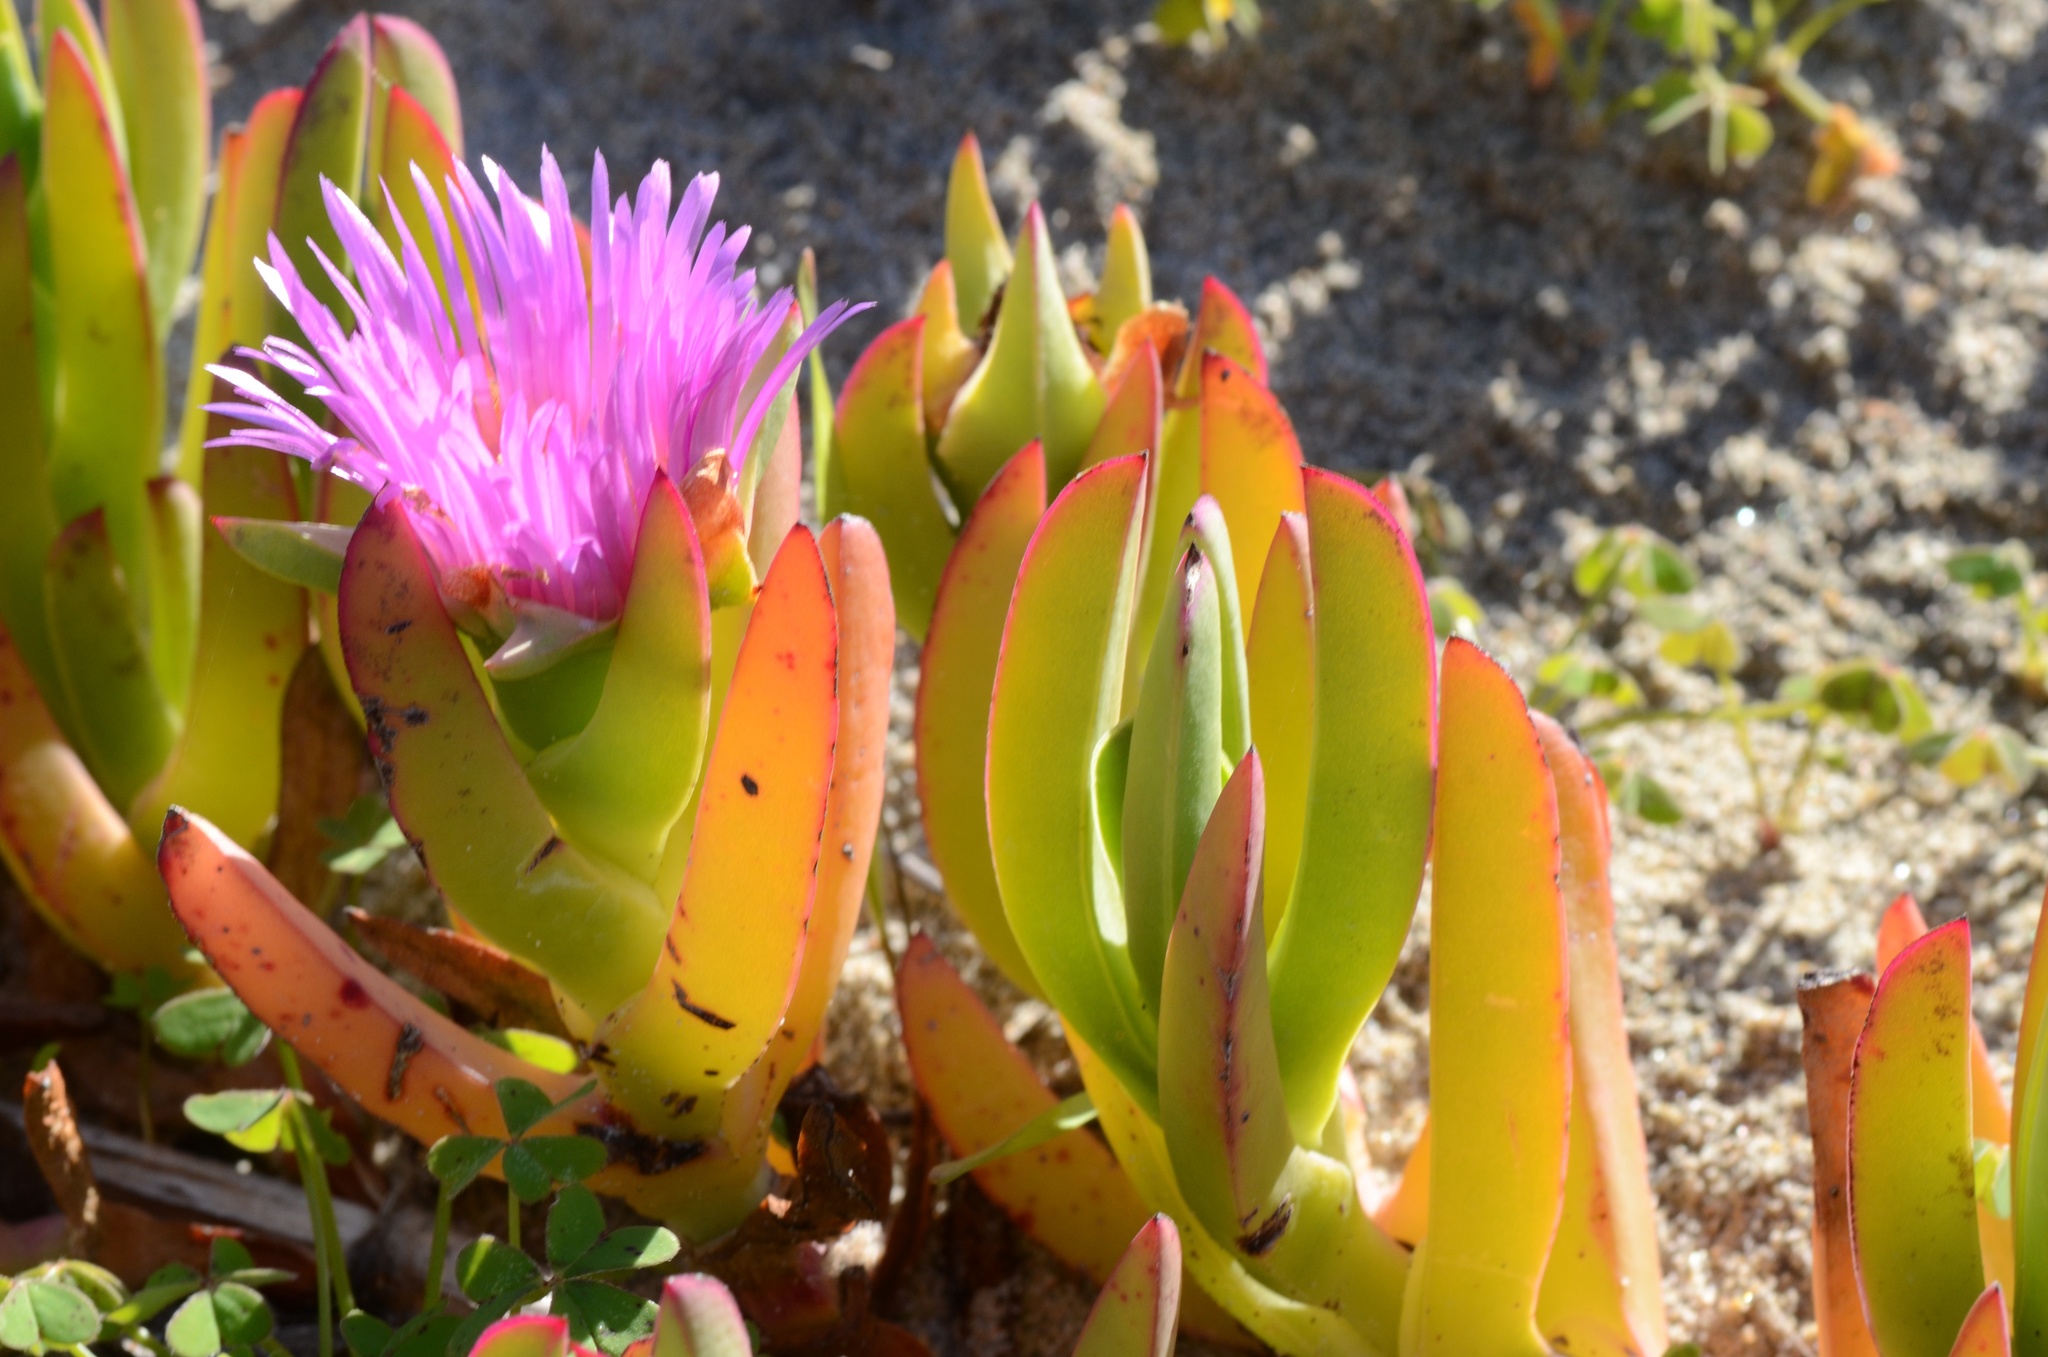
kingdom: Plantae
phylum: Tracheophyta
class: Magnoliopsida
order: Caryophyllales
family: Aizoaceae
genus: Carpobrotus
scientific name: Carpobrotus
